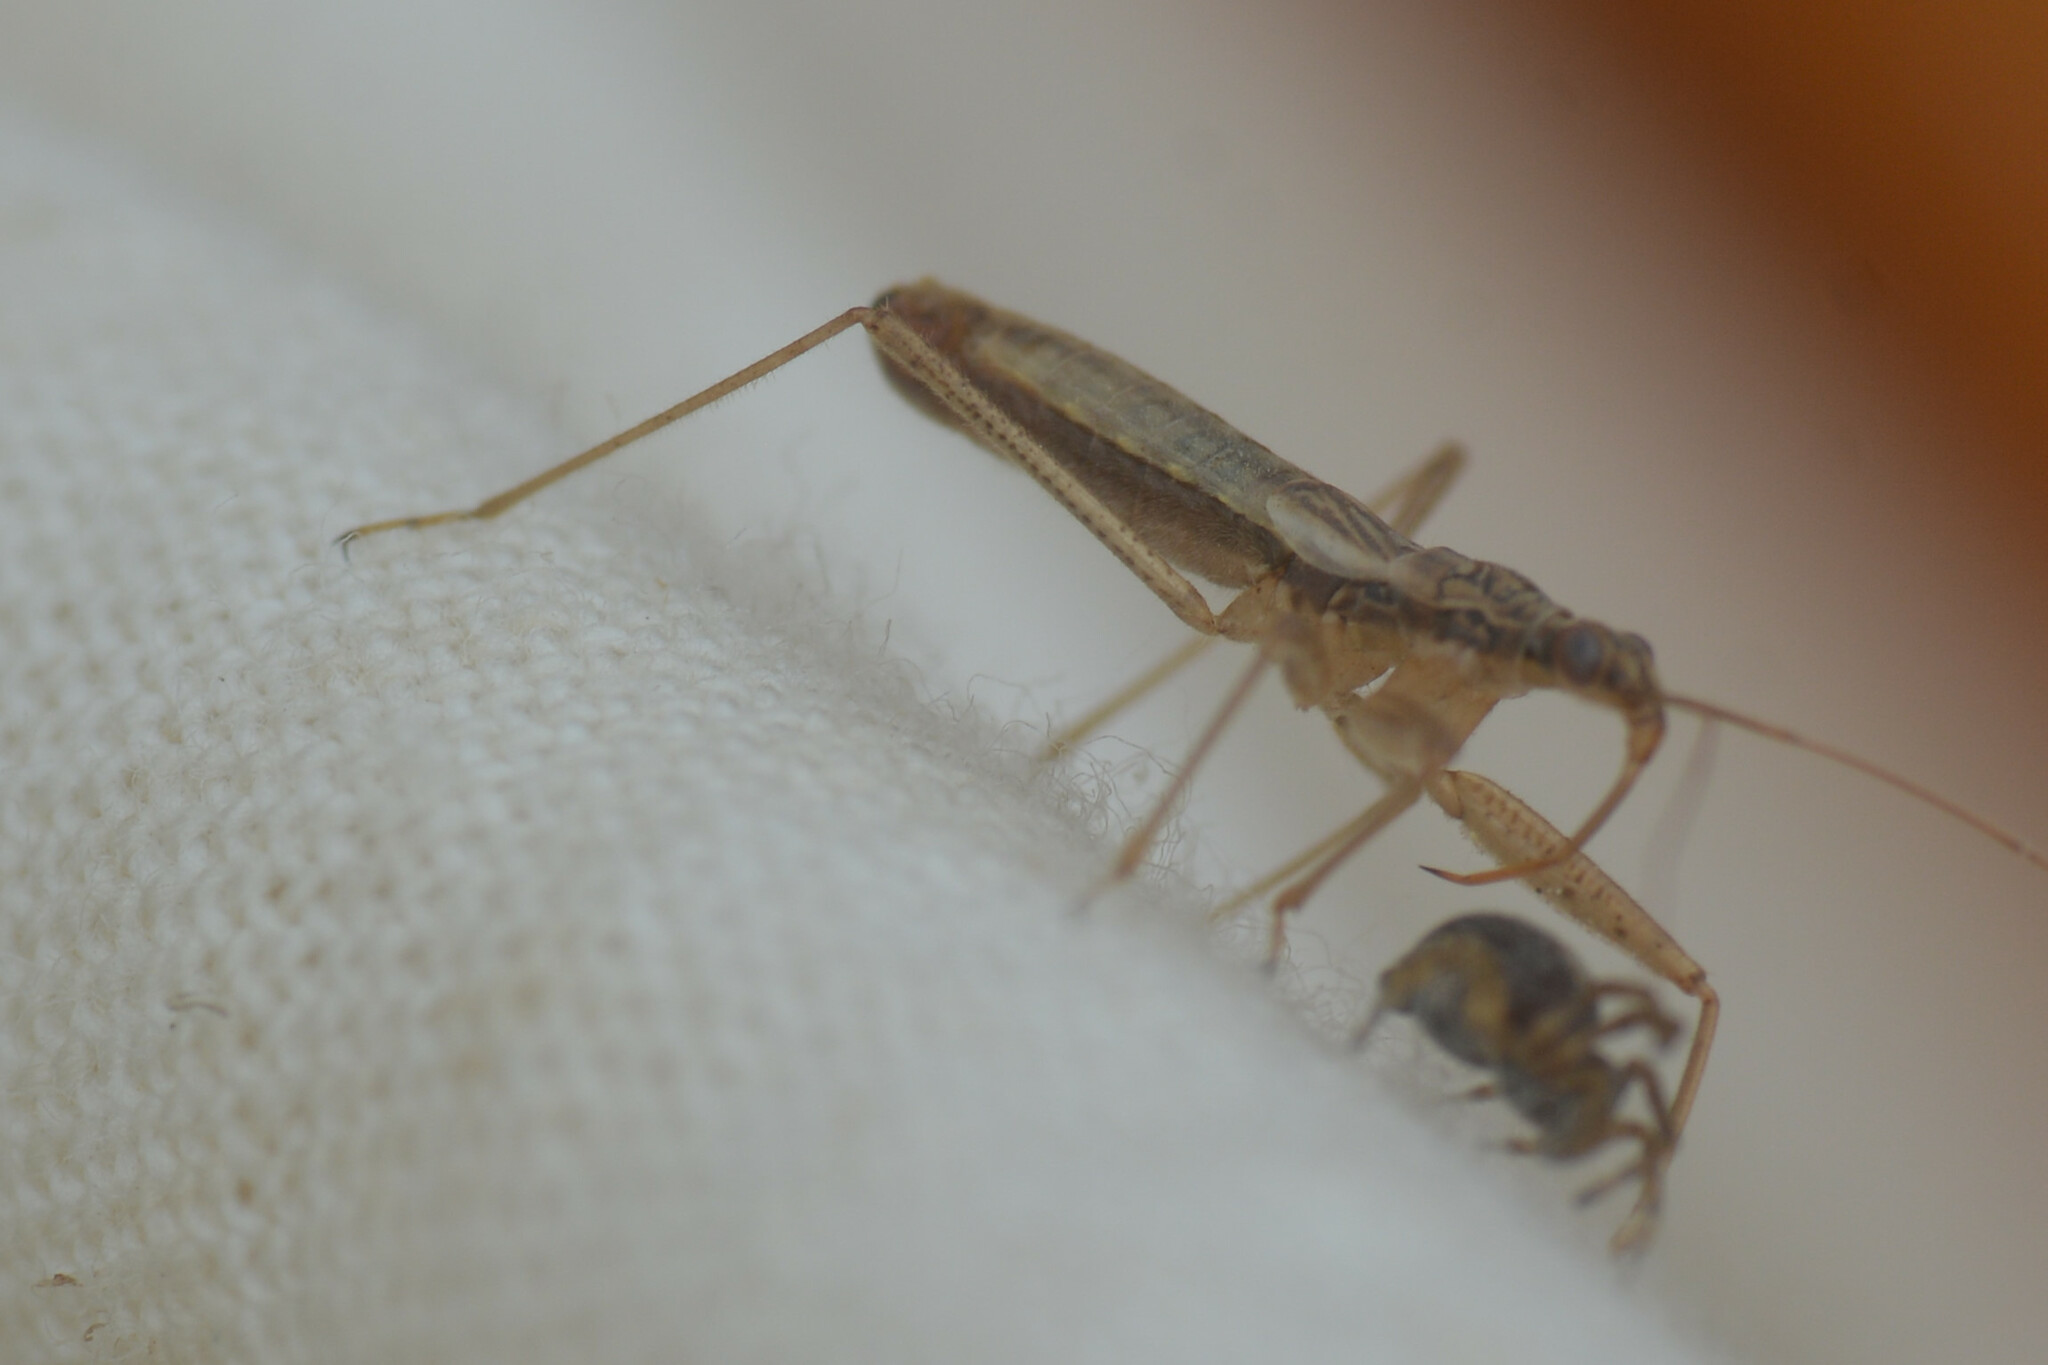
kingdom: Animalia
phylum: Arthropoda
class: Insecta
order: Hemiptera
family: Nabidae
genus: Nabis
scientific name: Nabis limbatus
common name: Marsh damselbug
